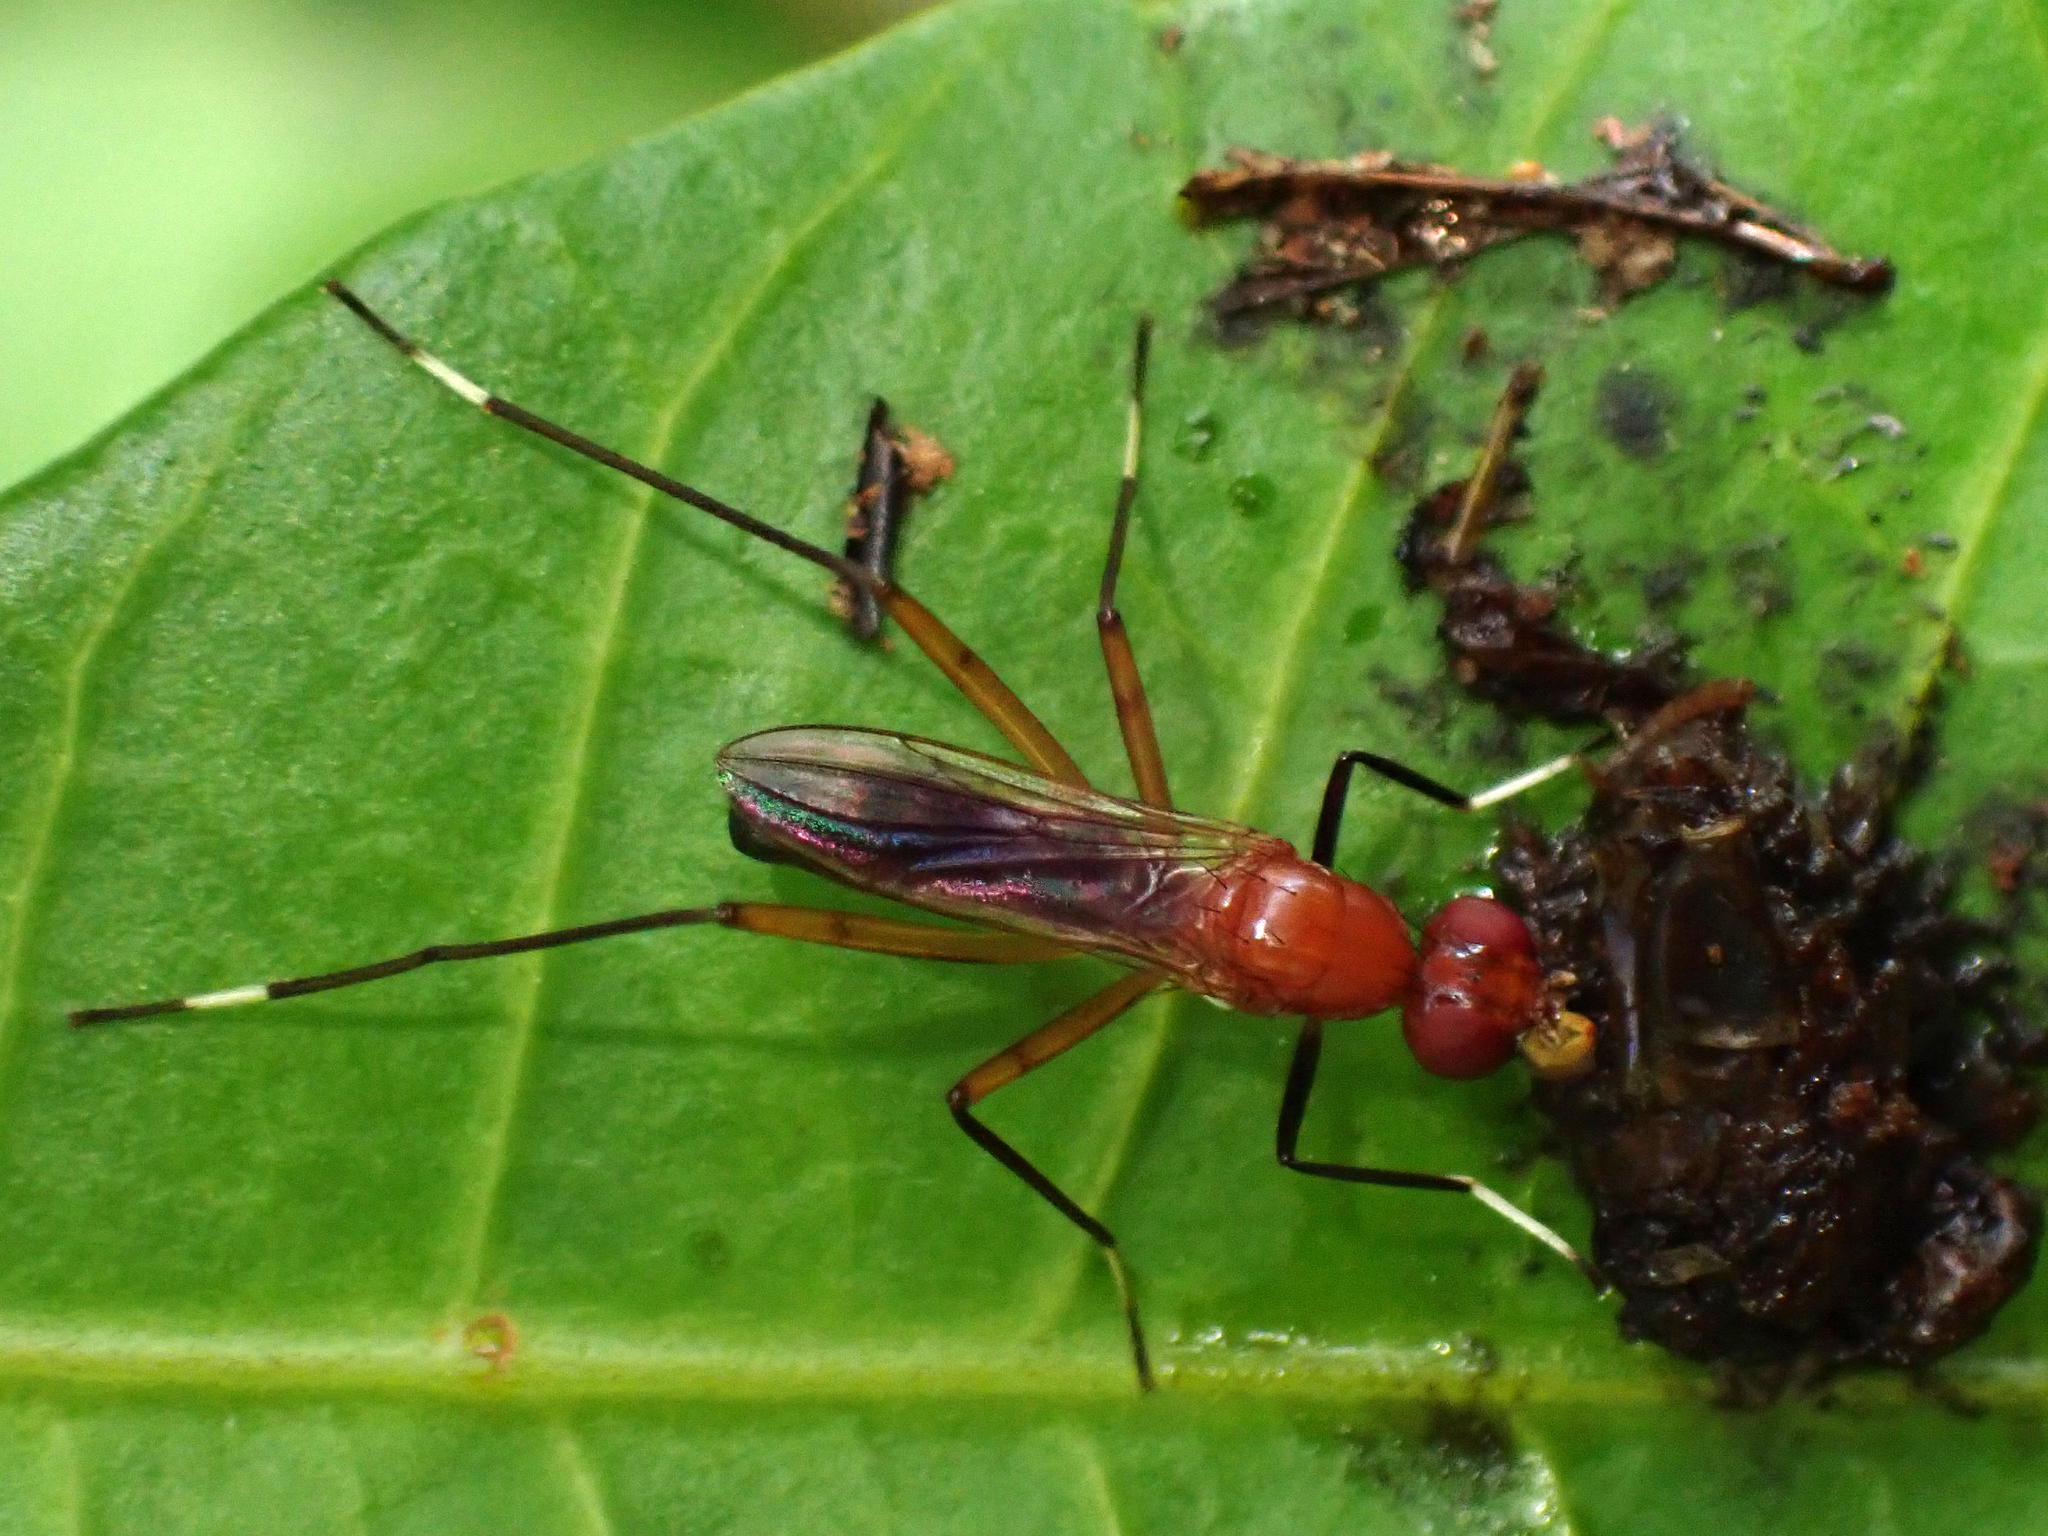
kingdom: Animalia
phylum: Arthropoda
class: Insecta
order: Diptera
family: Micropezidae
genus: Grallipeza
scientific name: Grallipeza nebulosa
